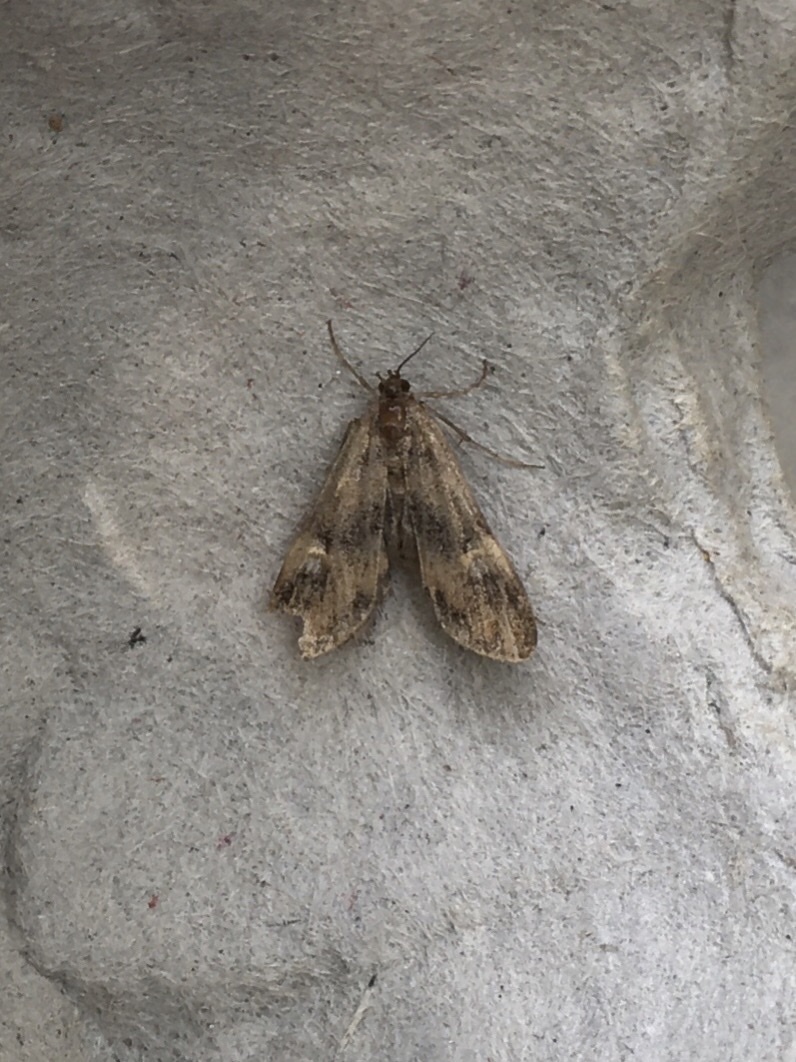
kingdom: Animalia
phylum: Arthropoda
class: Insecta
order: Lepidoptera
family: Crambidae
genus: Elophila
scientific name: Elophila obliteralis
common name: Waterlily leafcutter moth
